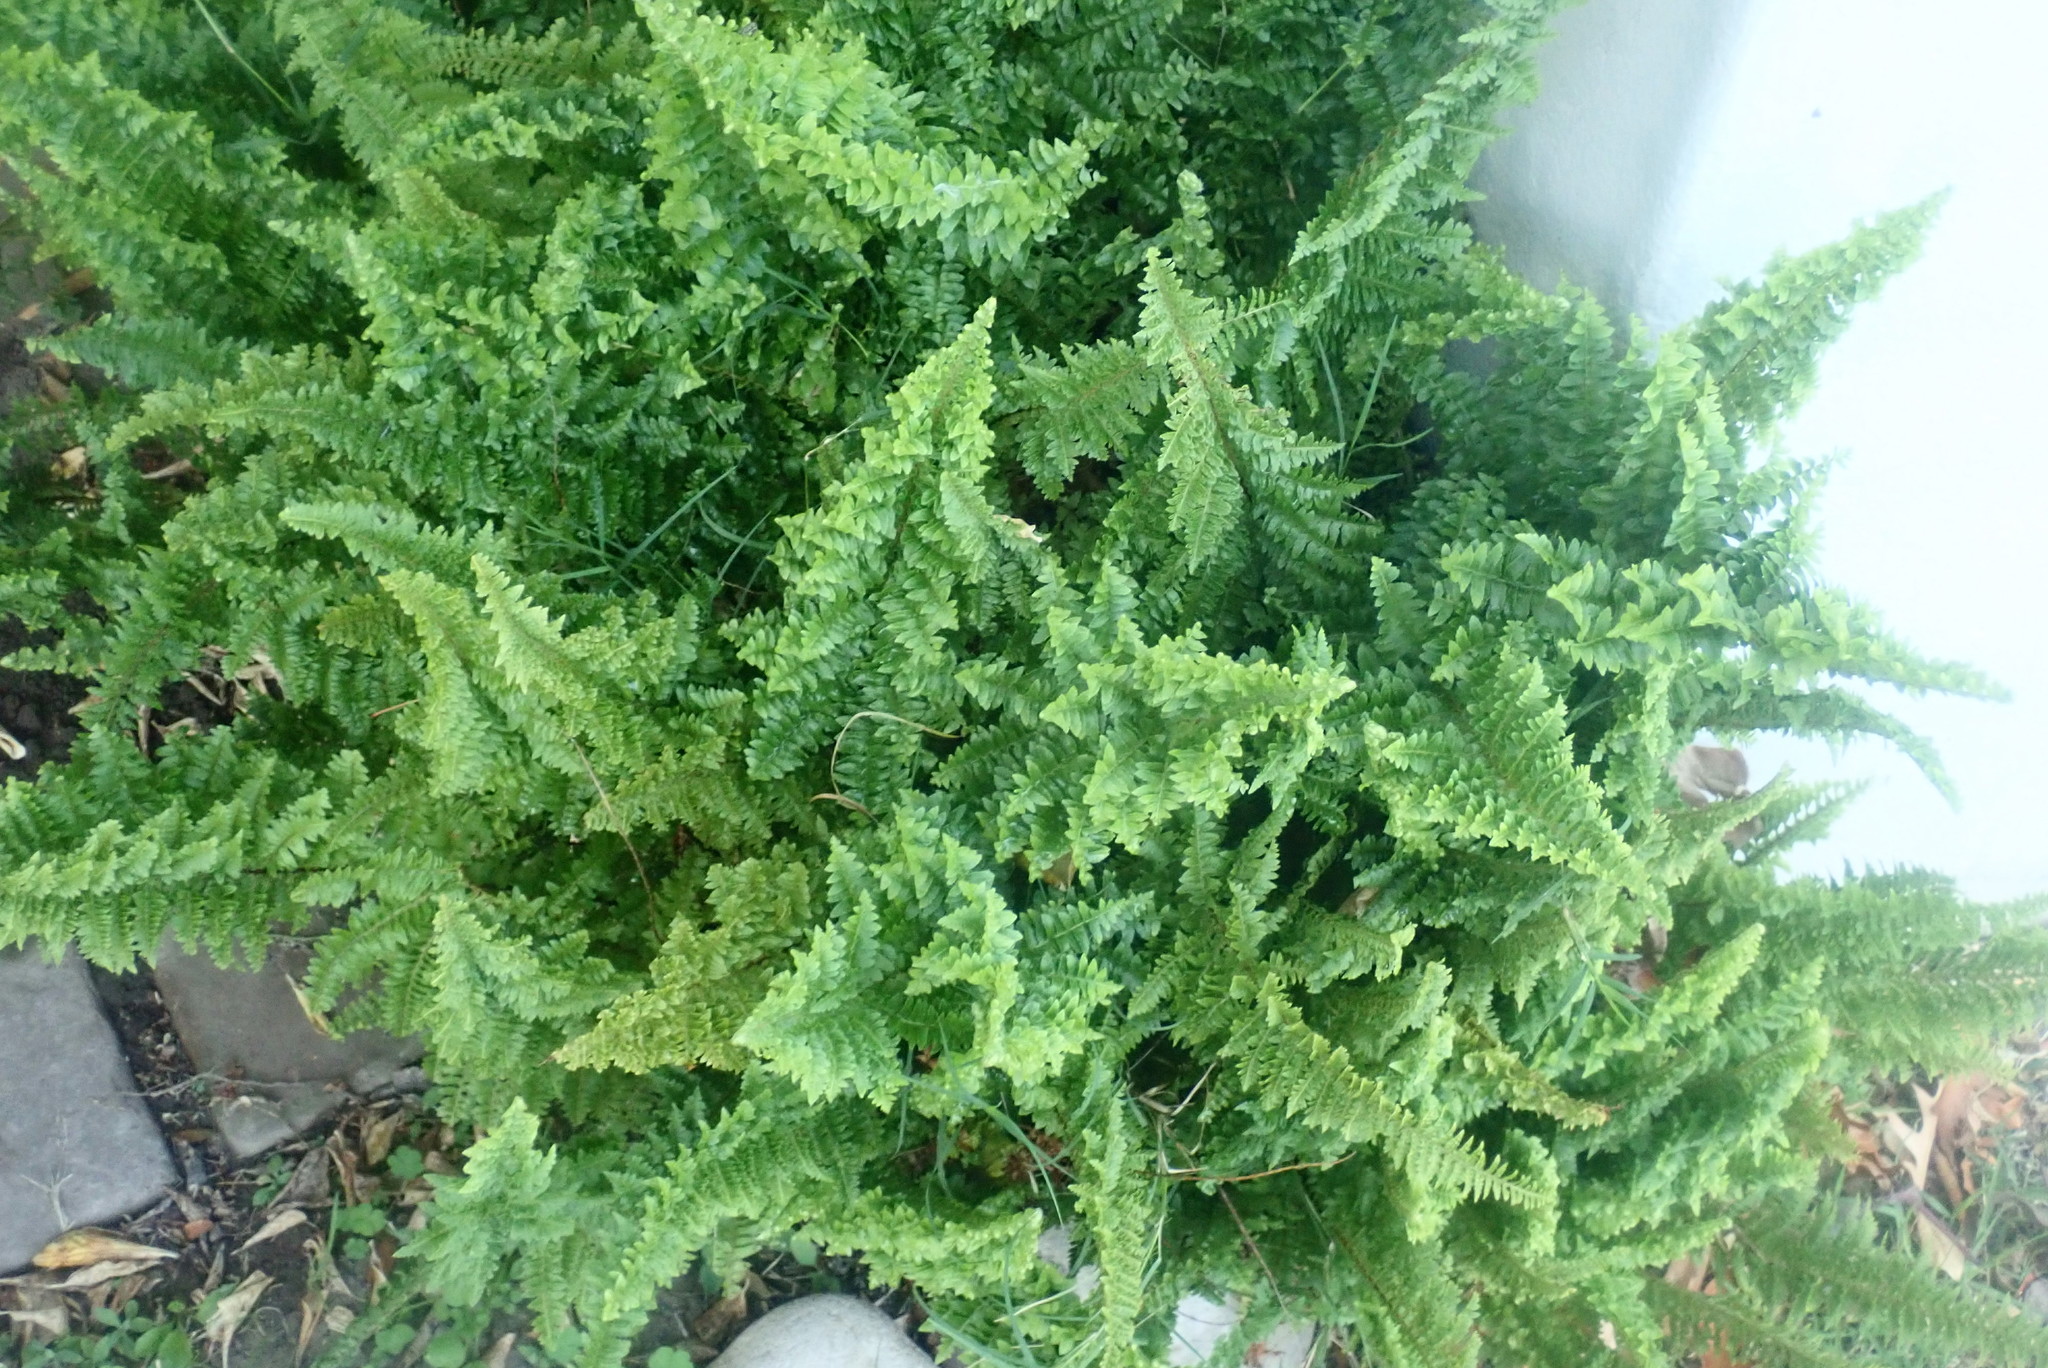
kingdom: Plantae
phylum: Tracheophyta
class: Polypodiopsida
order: Polypodiales
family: Nephrolepidaceae
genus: Nephrolepis
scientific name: Nephrolepis exaltata
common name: Sword fern
